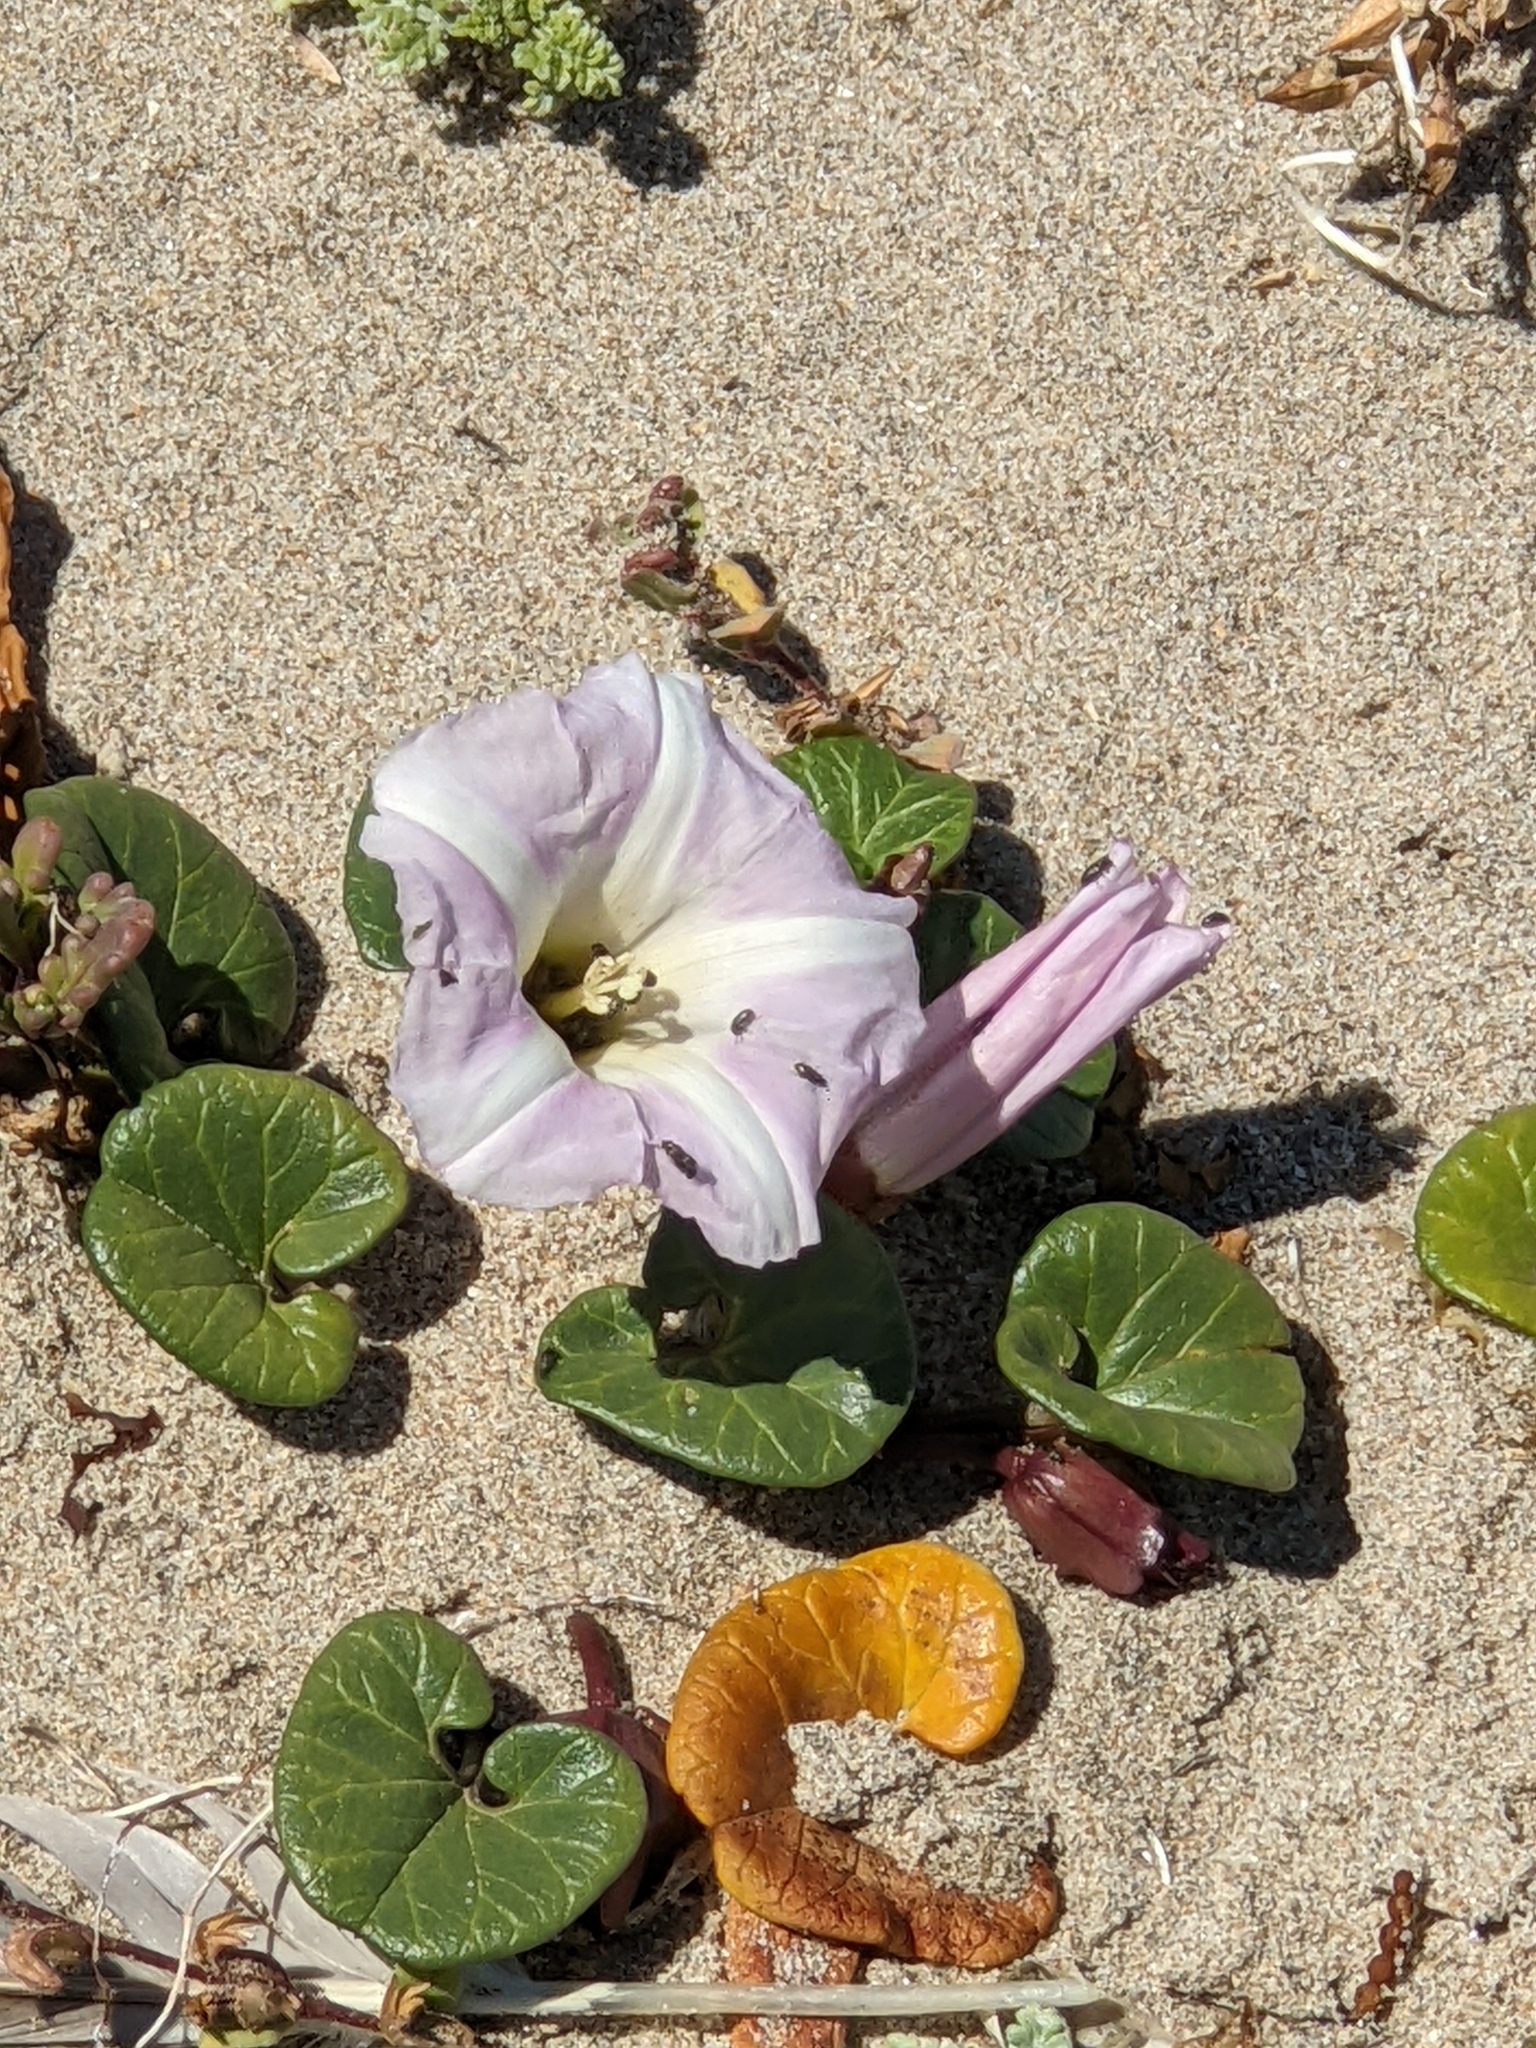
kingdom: Plantae
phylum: Tracheophyta
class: Magnoliopsida
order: Solanales
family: Convolvulaceae
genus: Calystegia
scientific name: Calystegia soldanella
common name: Sea bindweed
